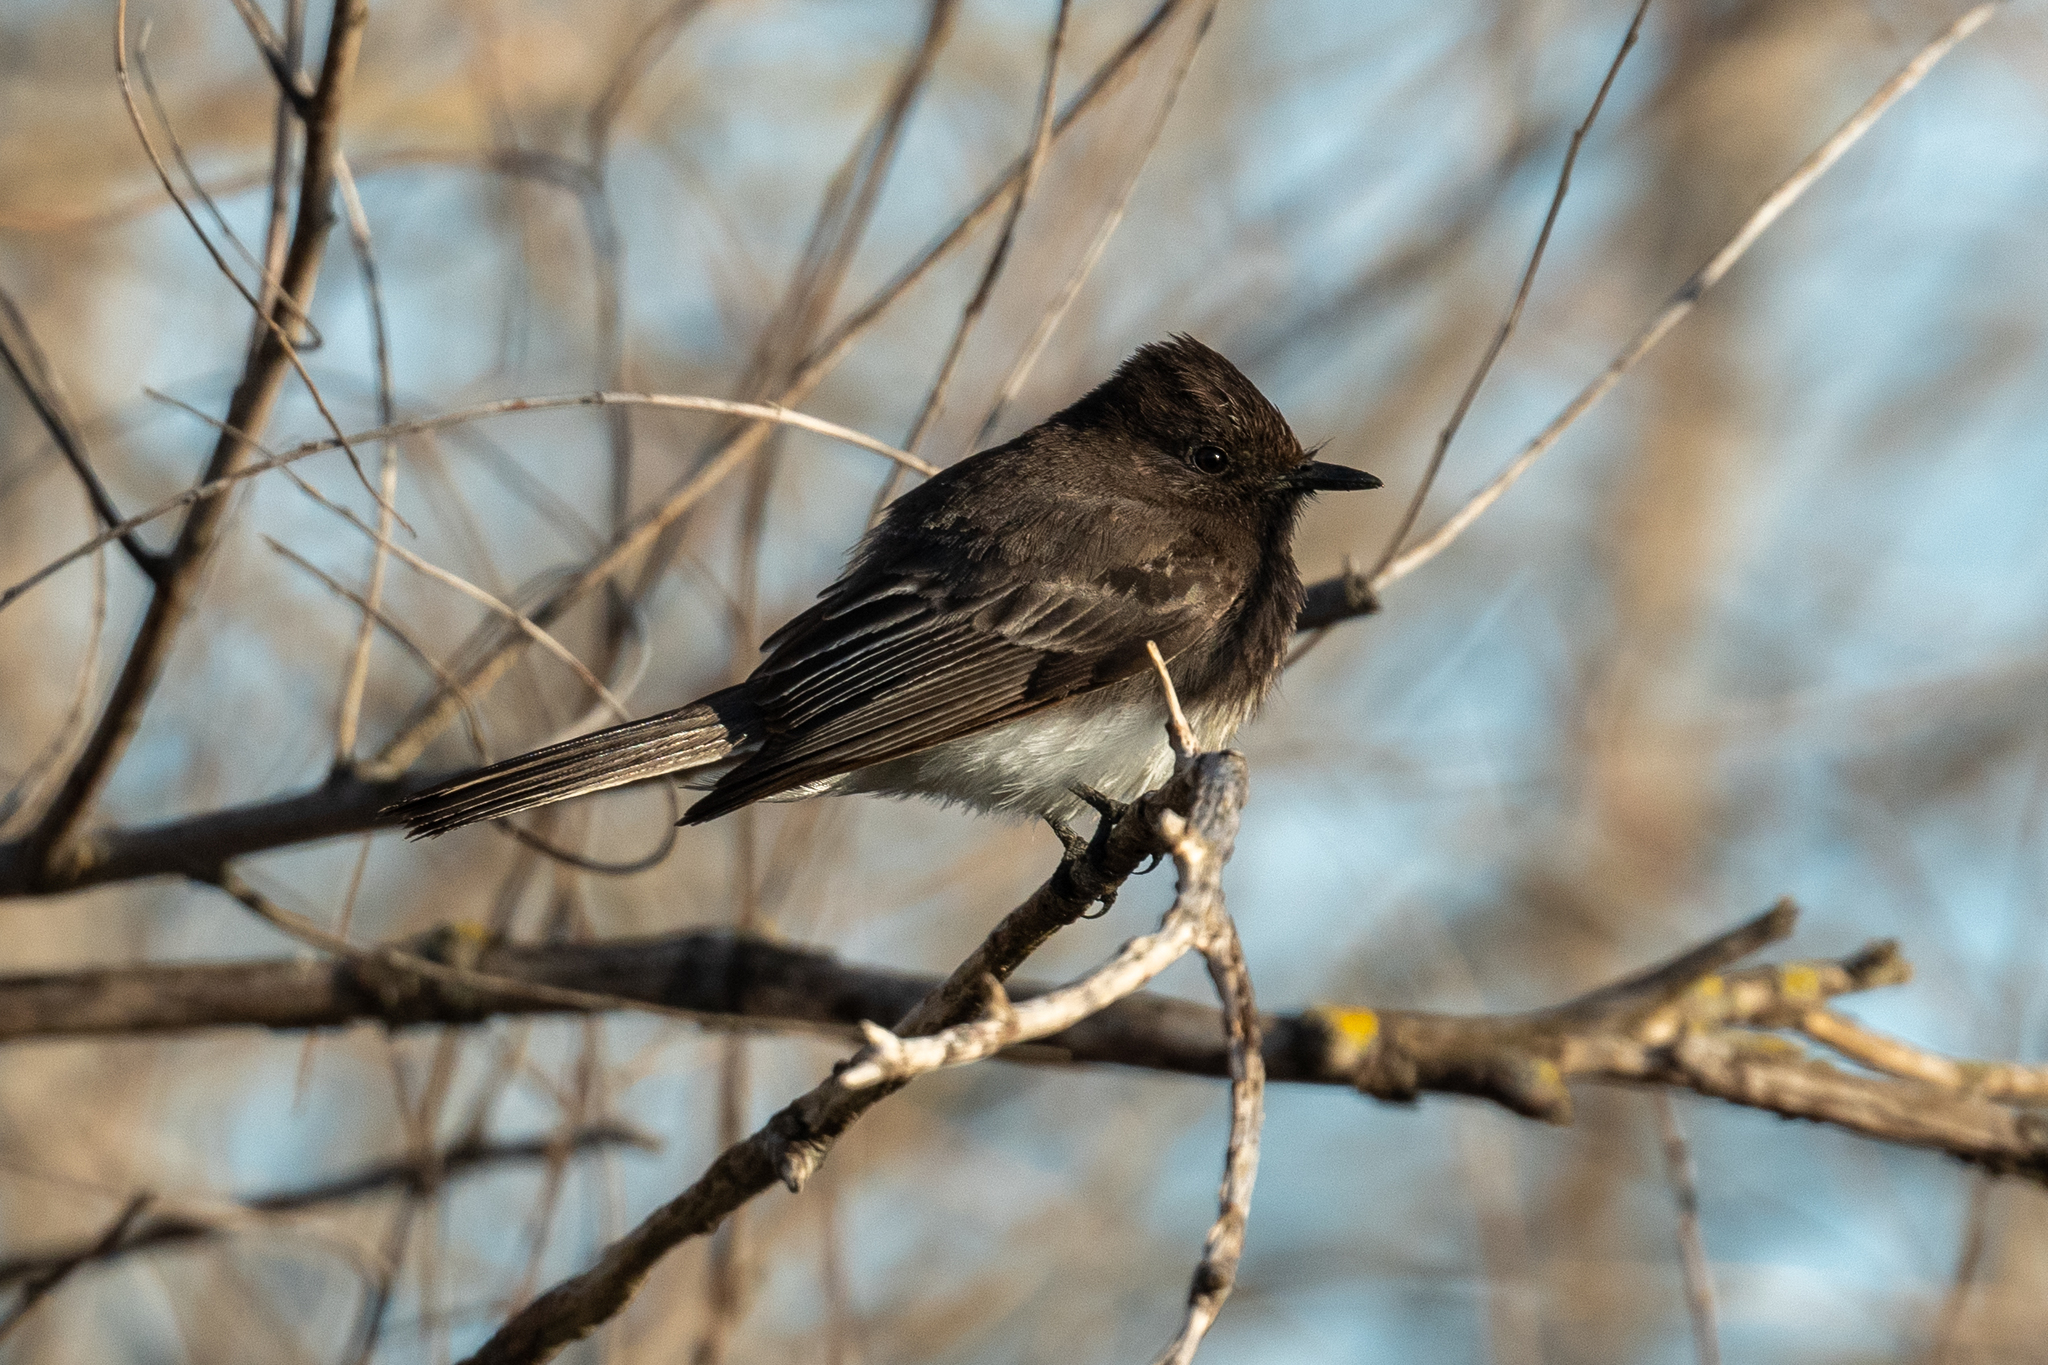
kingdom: Animalia
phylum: Chordata
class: Aves
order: Passeriformes
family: Tyrannidae
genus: Sayornis
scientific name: Sayornis nigricans
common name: Black phoebe
